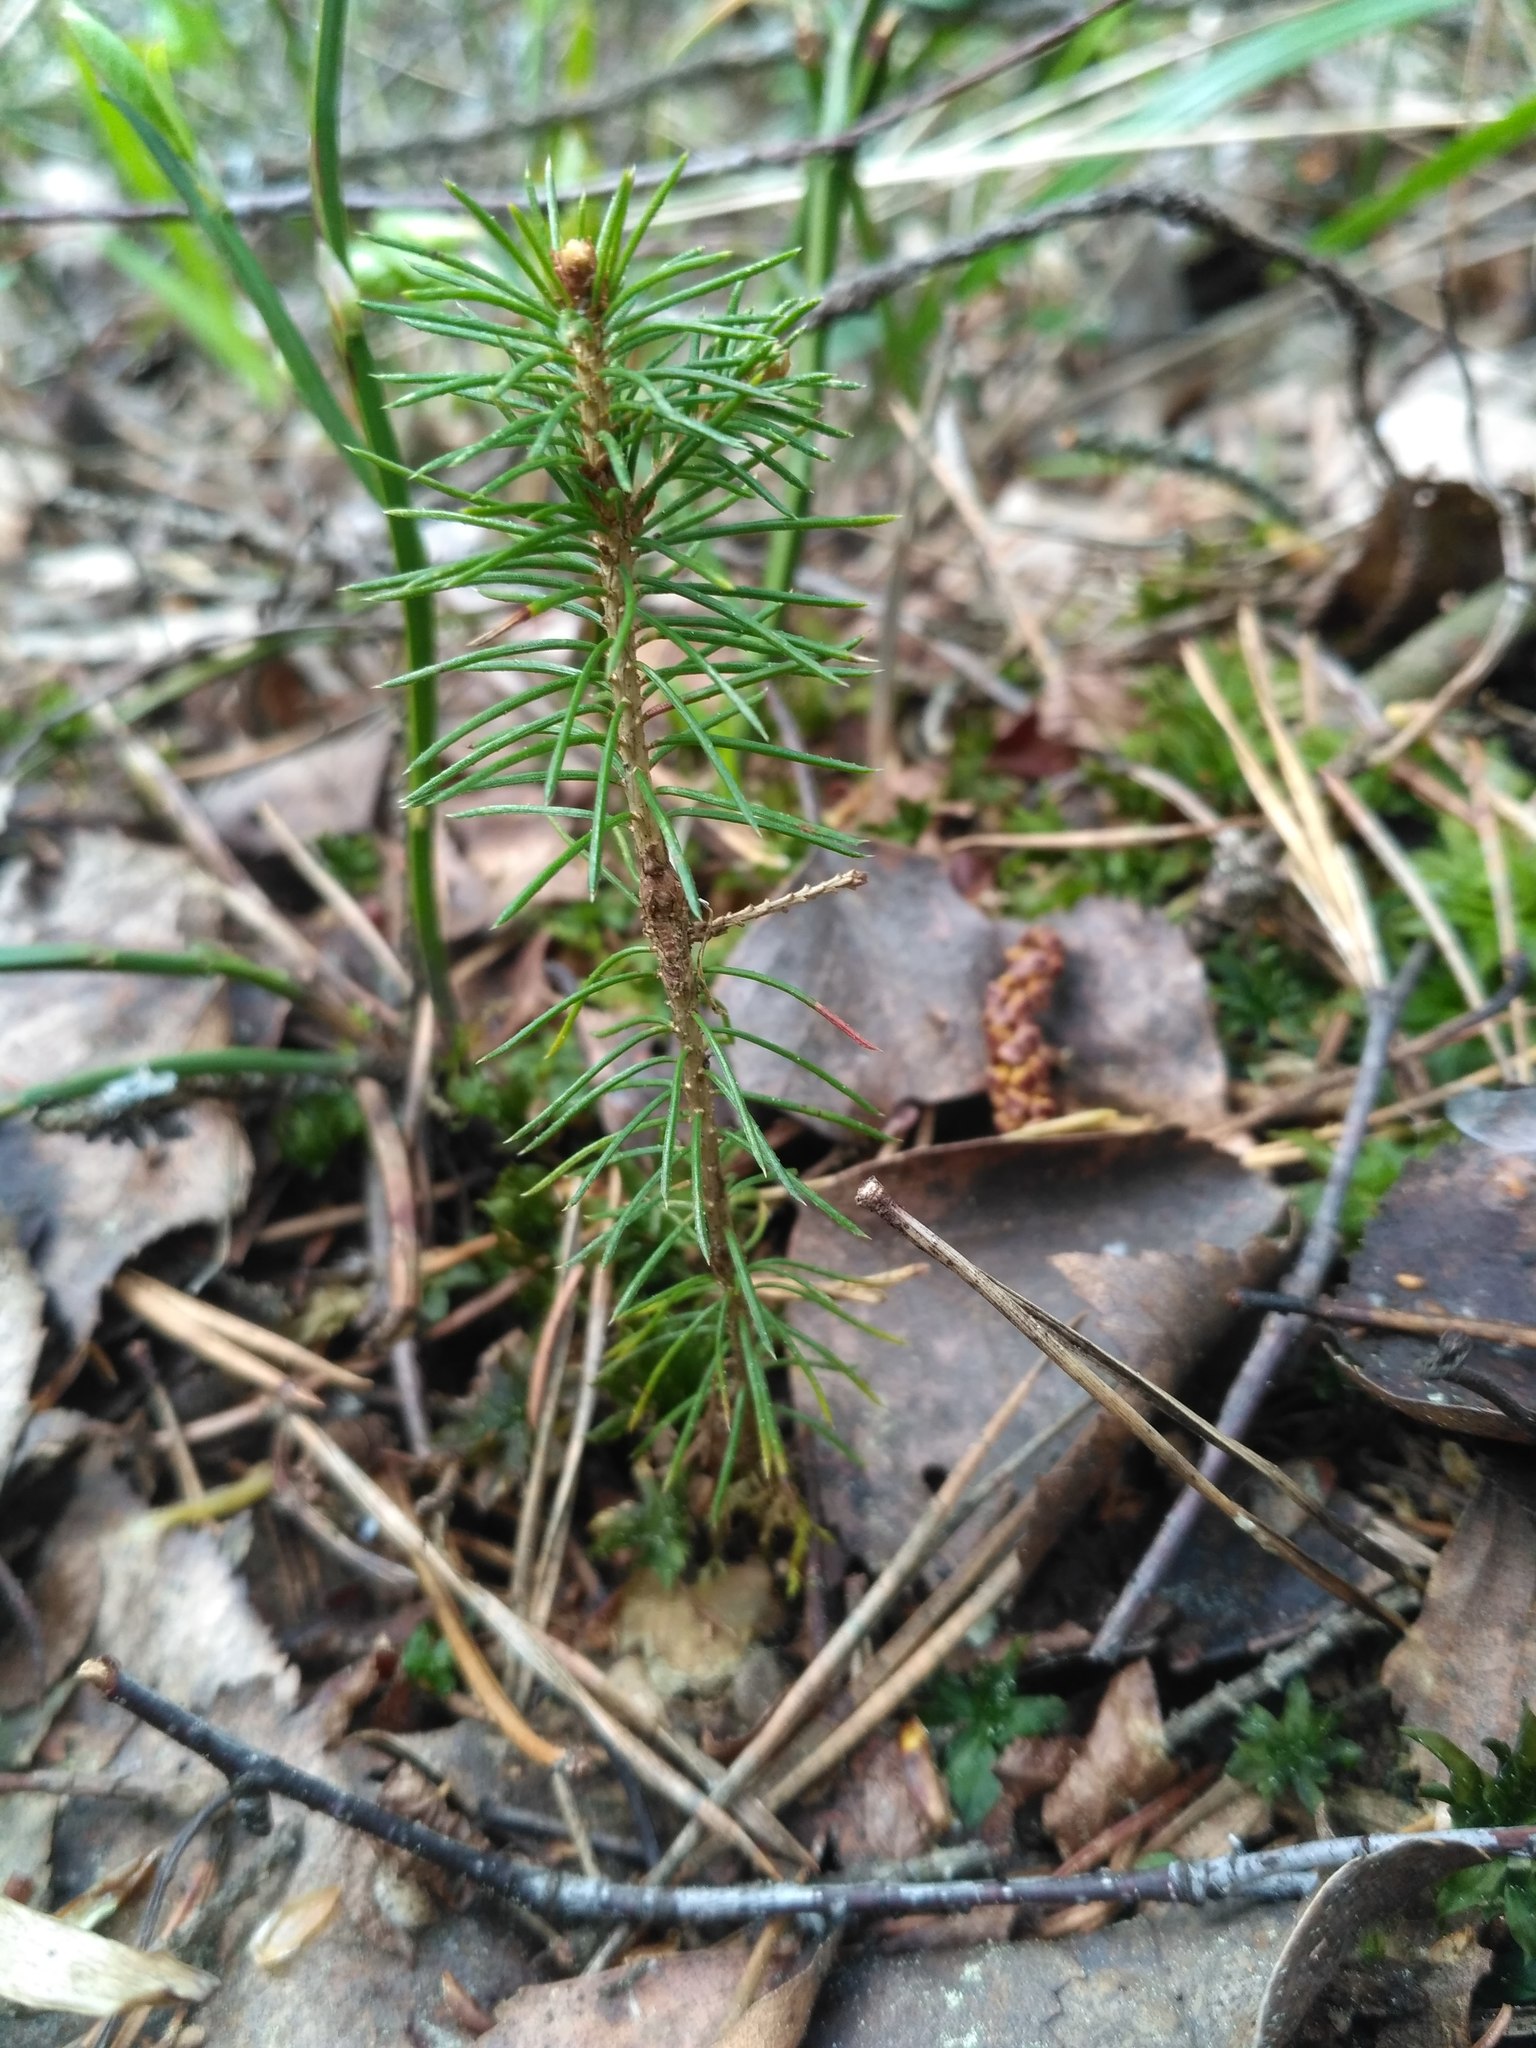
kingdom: Plantae
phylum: Tracheophyta
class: Pinopsida
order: Pinales
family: Pinaceae
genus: Pinus
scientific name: Pinus sylvestris
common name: Scots pine
